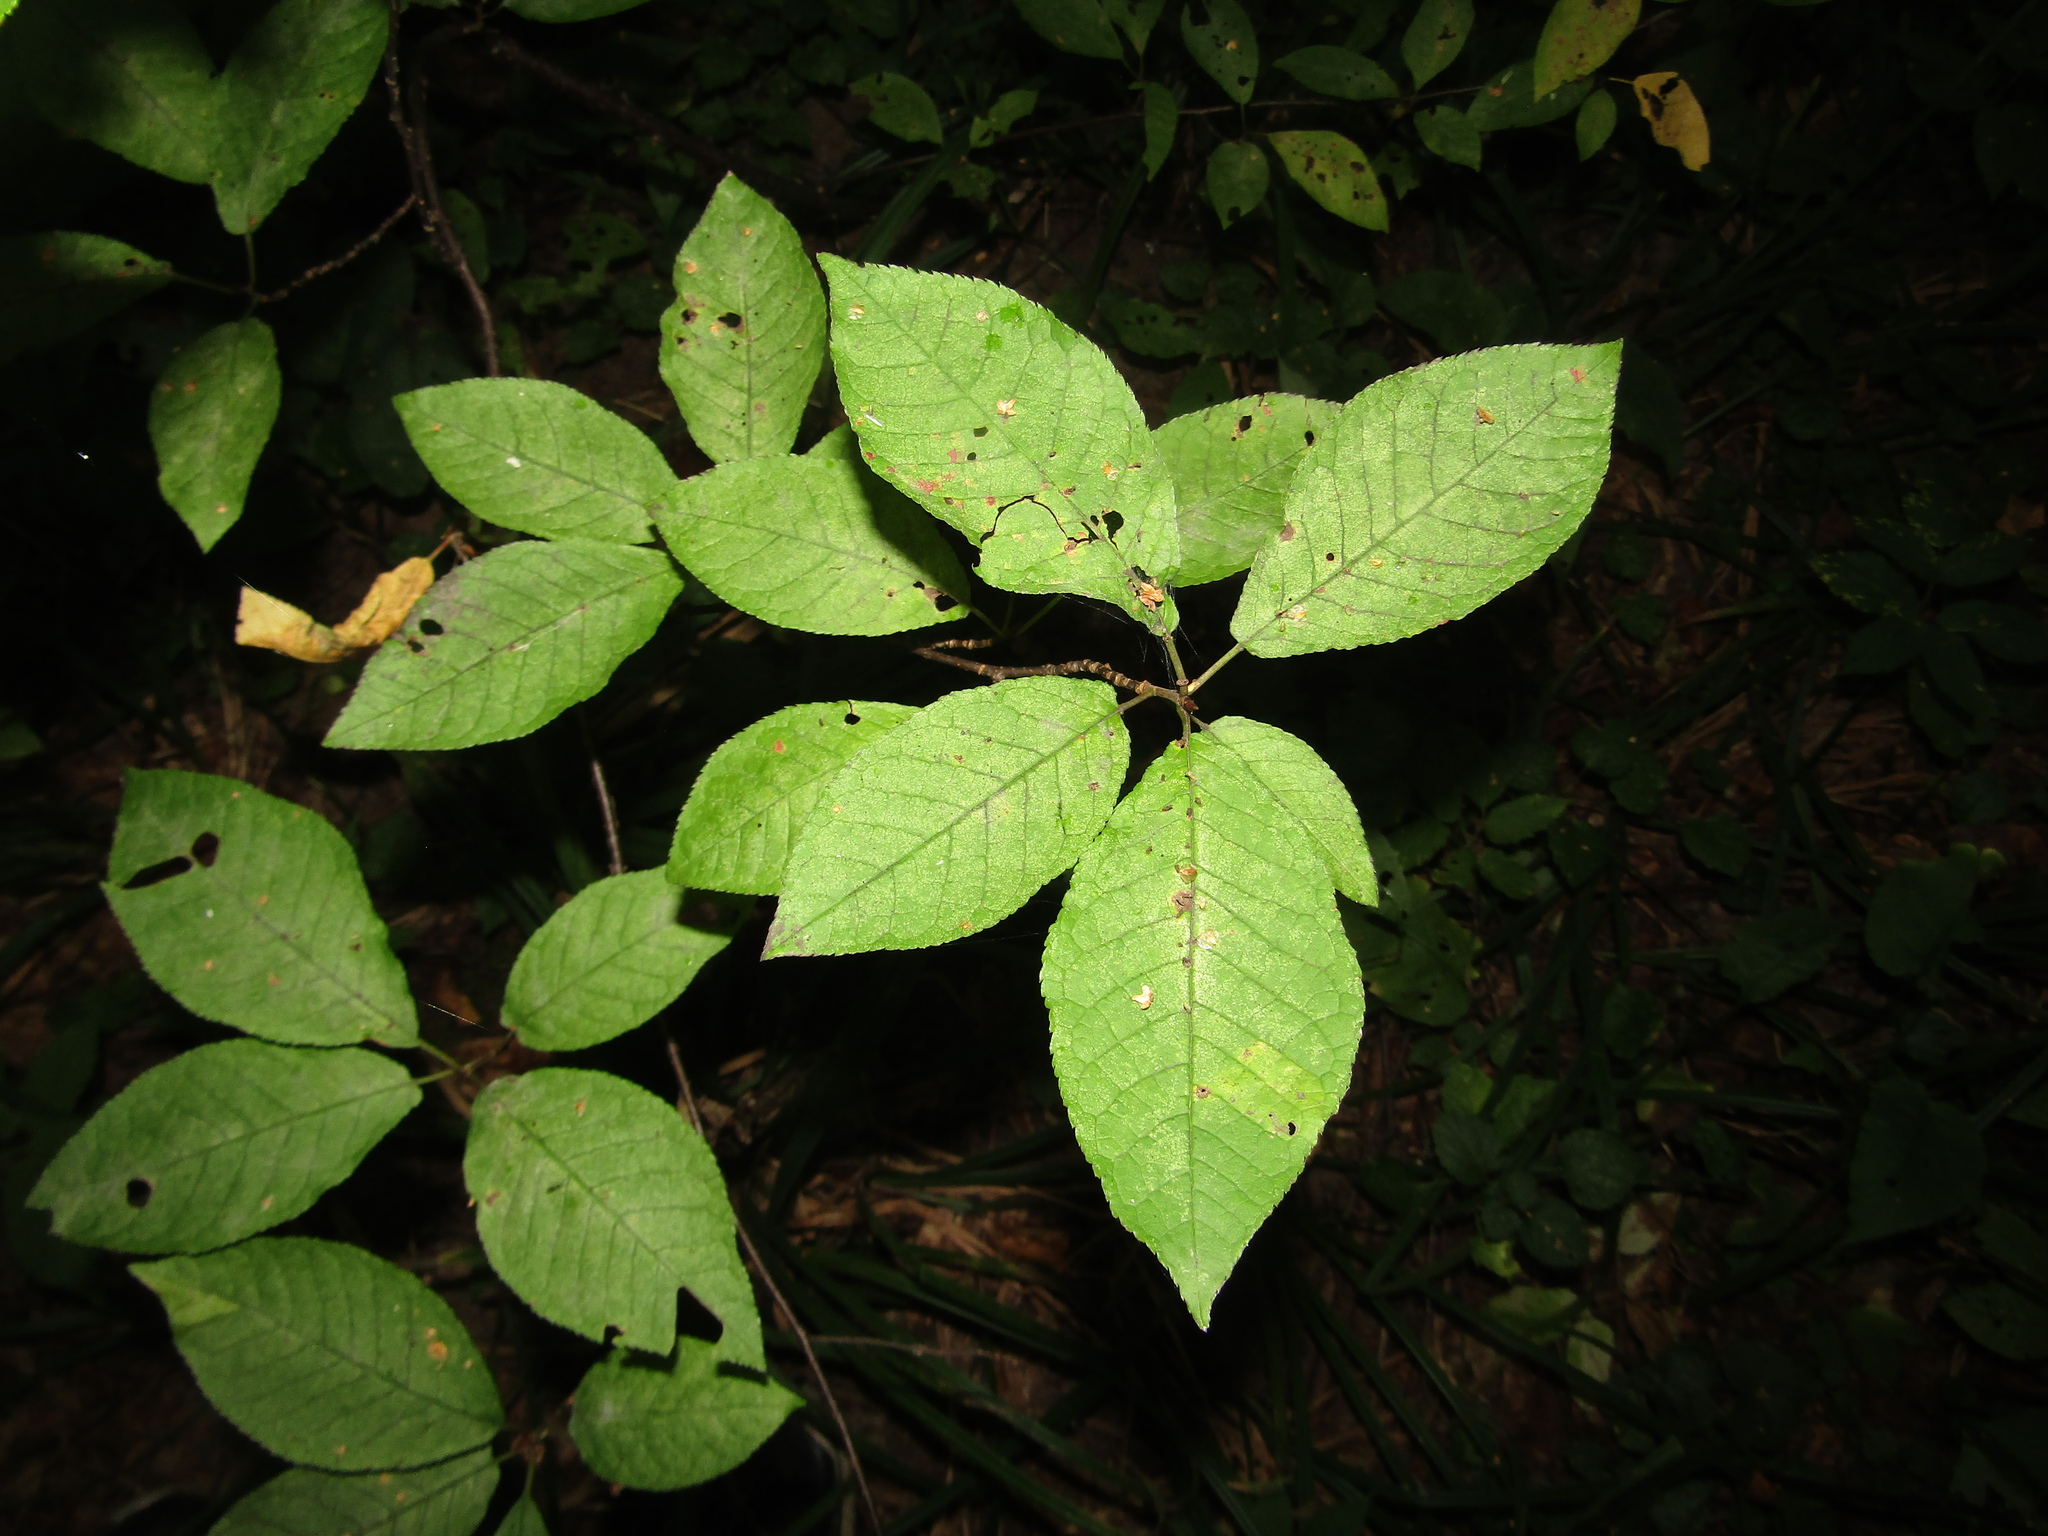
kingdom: Plantae
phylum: Tracheophyta
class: Magnoliopsida
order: Rosales
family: Rosaceae
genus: Prunus
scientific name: Prunus padus
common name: Bird cherry
